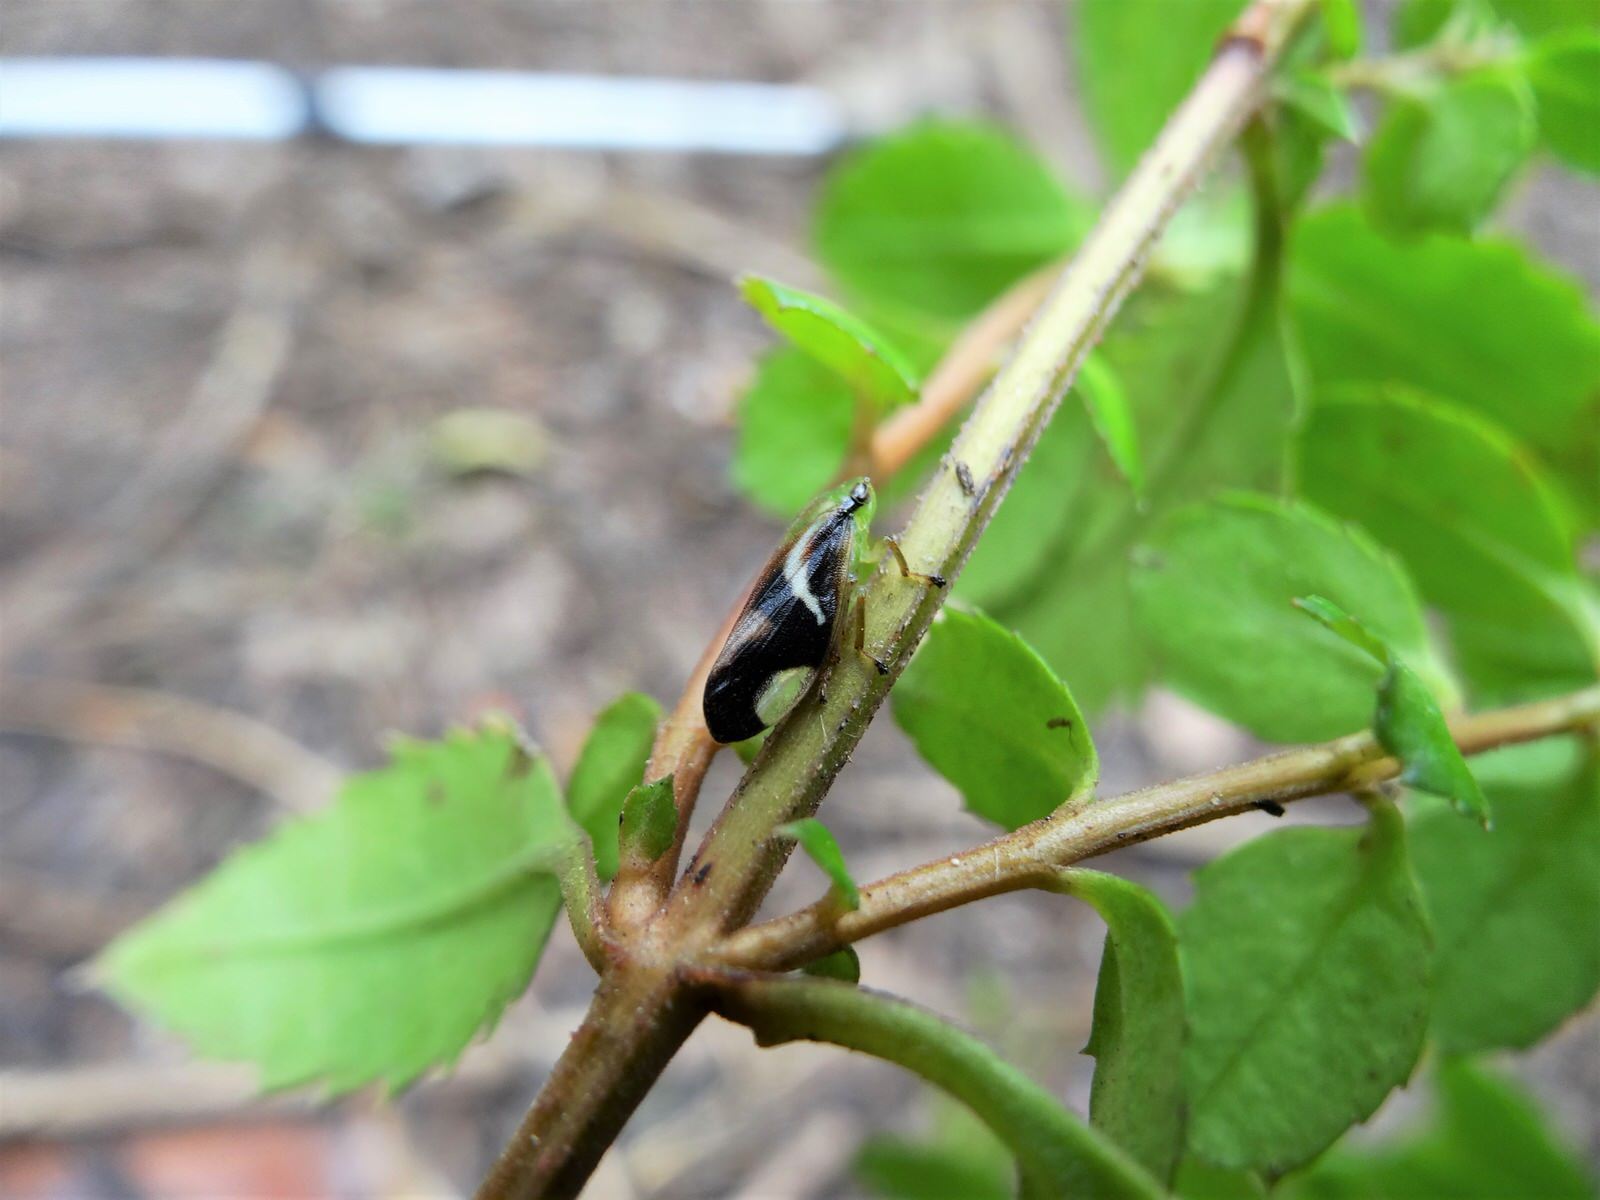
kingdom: Animalia
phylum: Arthropoda
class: Insecta
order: Hemiptera
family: Aphrophoridae
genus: Carystoterpa
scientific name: Carystoterpa fingens
